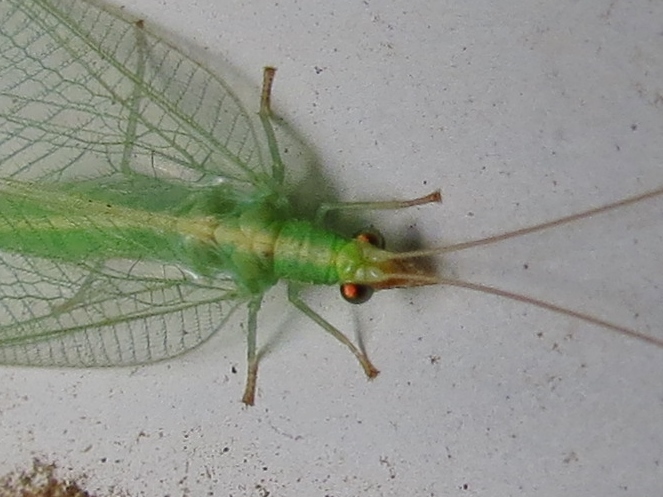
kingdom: Animalia
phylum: Arthropoda
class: Insecta
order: Neuroptera
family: Chrysopidae
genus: Chrysoperla
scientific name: Chrysoperla
